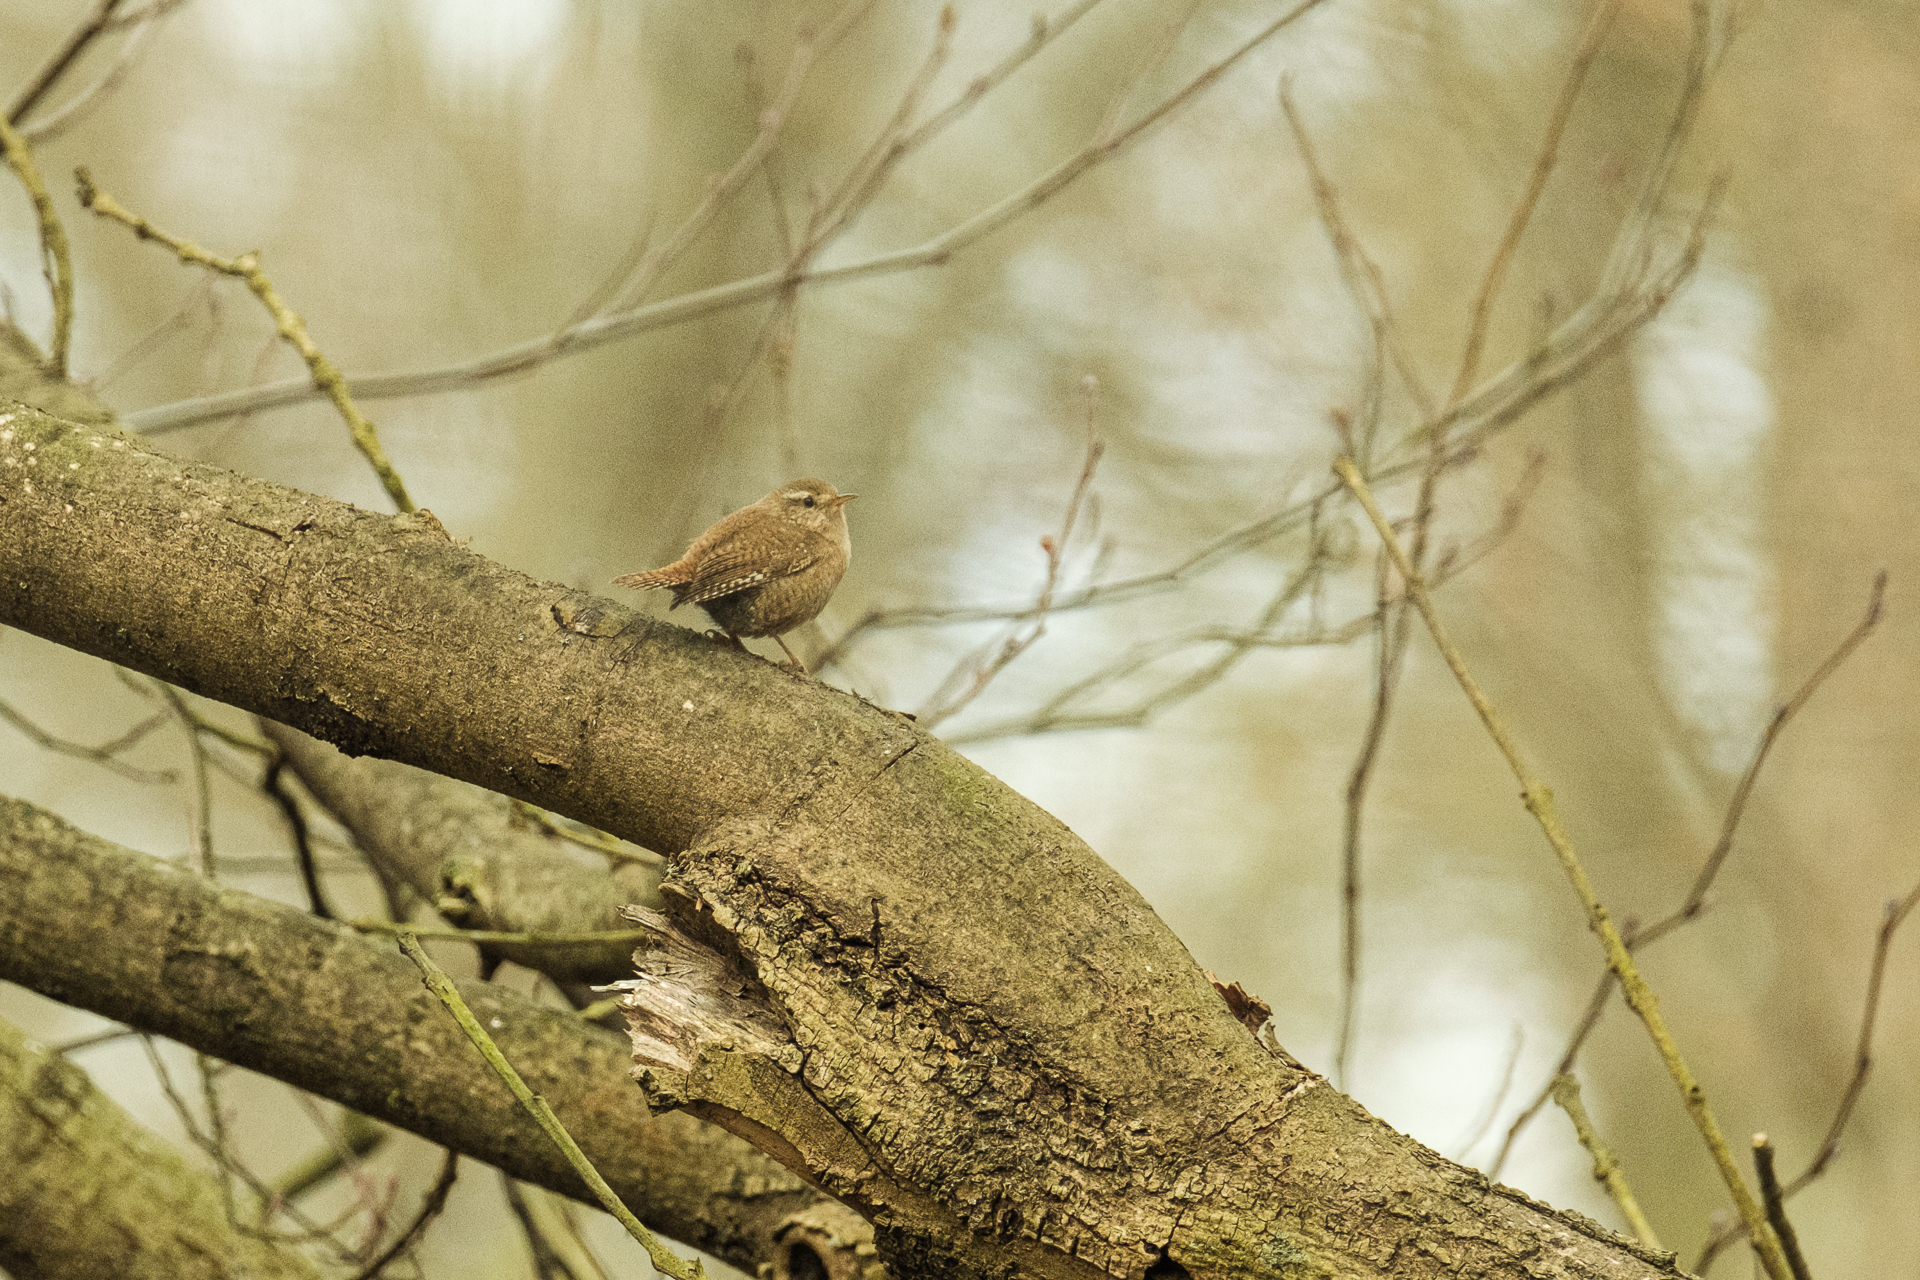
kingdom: Animalia
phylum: Chordata
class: Aves
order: Passeriformes
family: Troglodytidae
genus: Troglodytes
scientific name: Troglodytes troglodytes
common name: Eurasian wren
